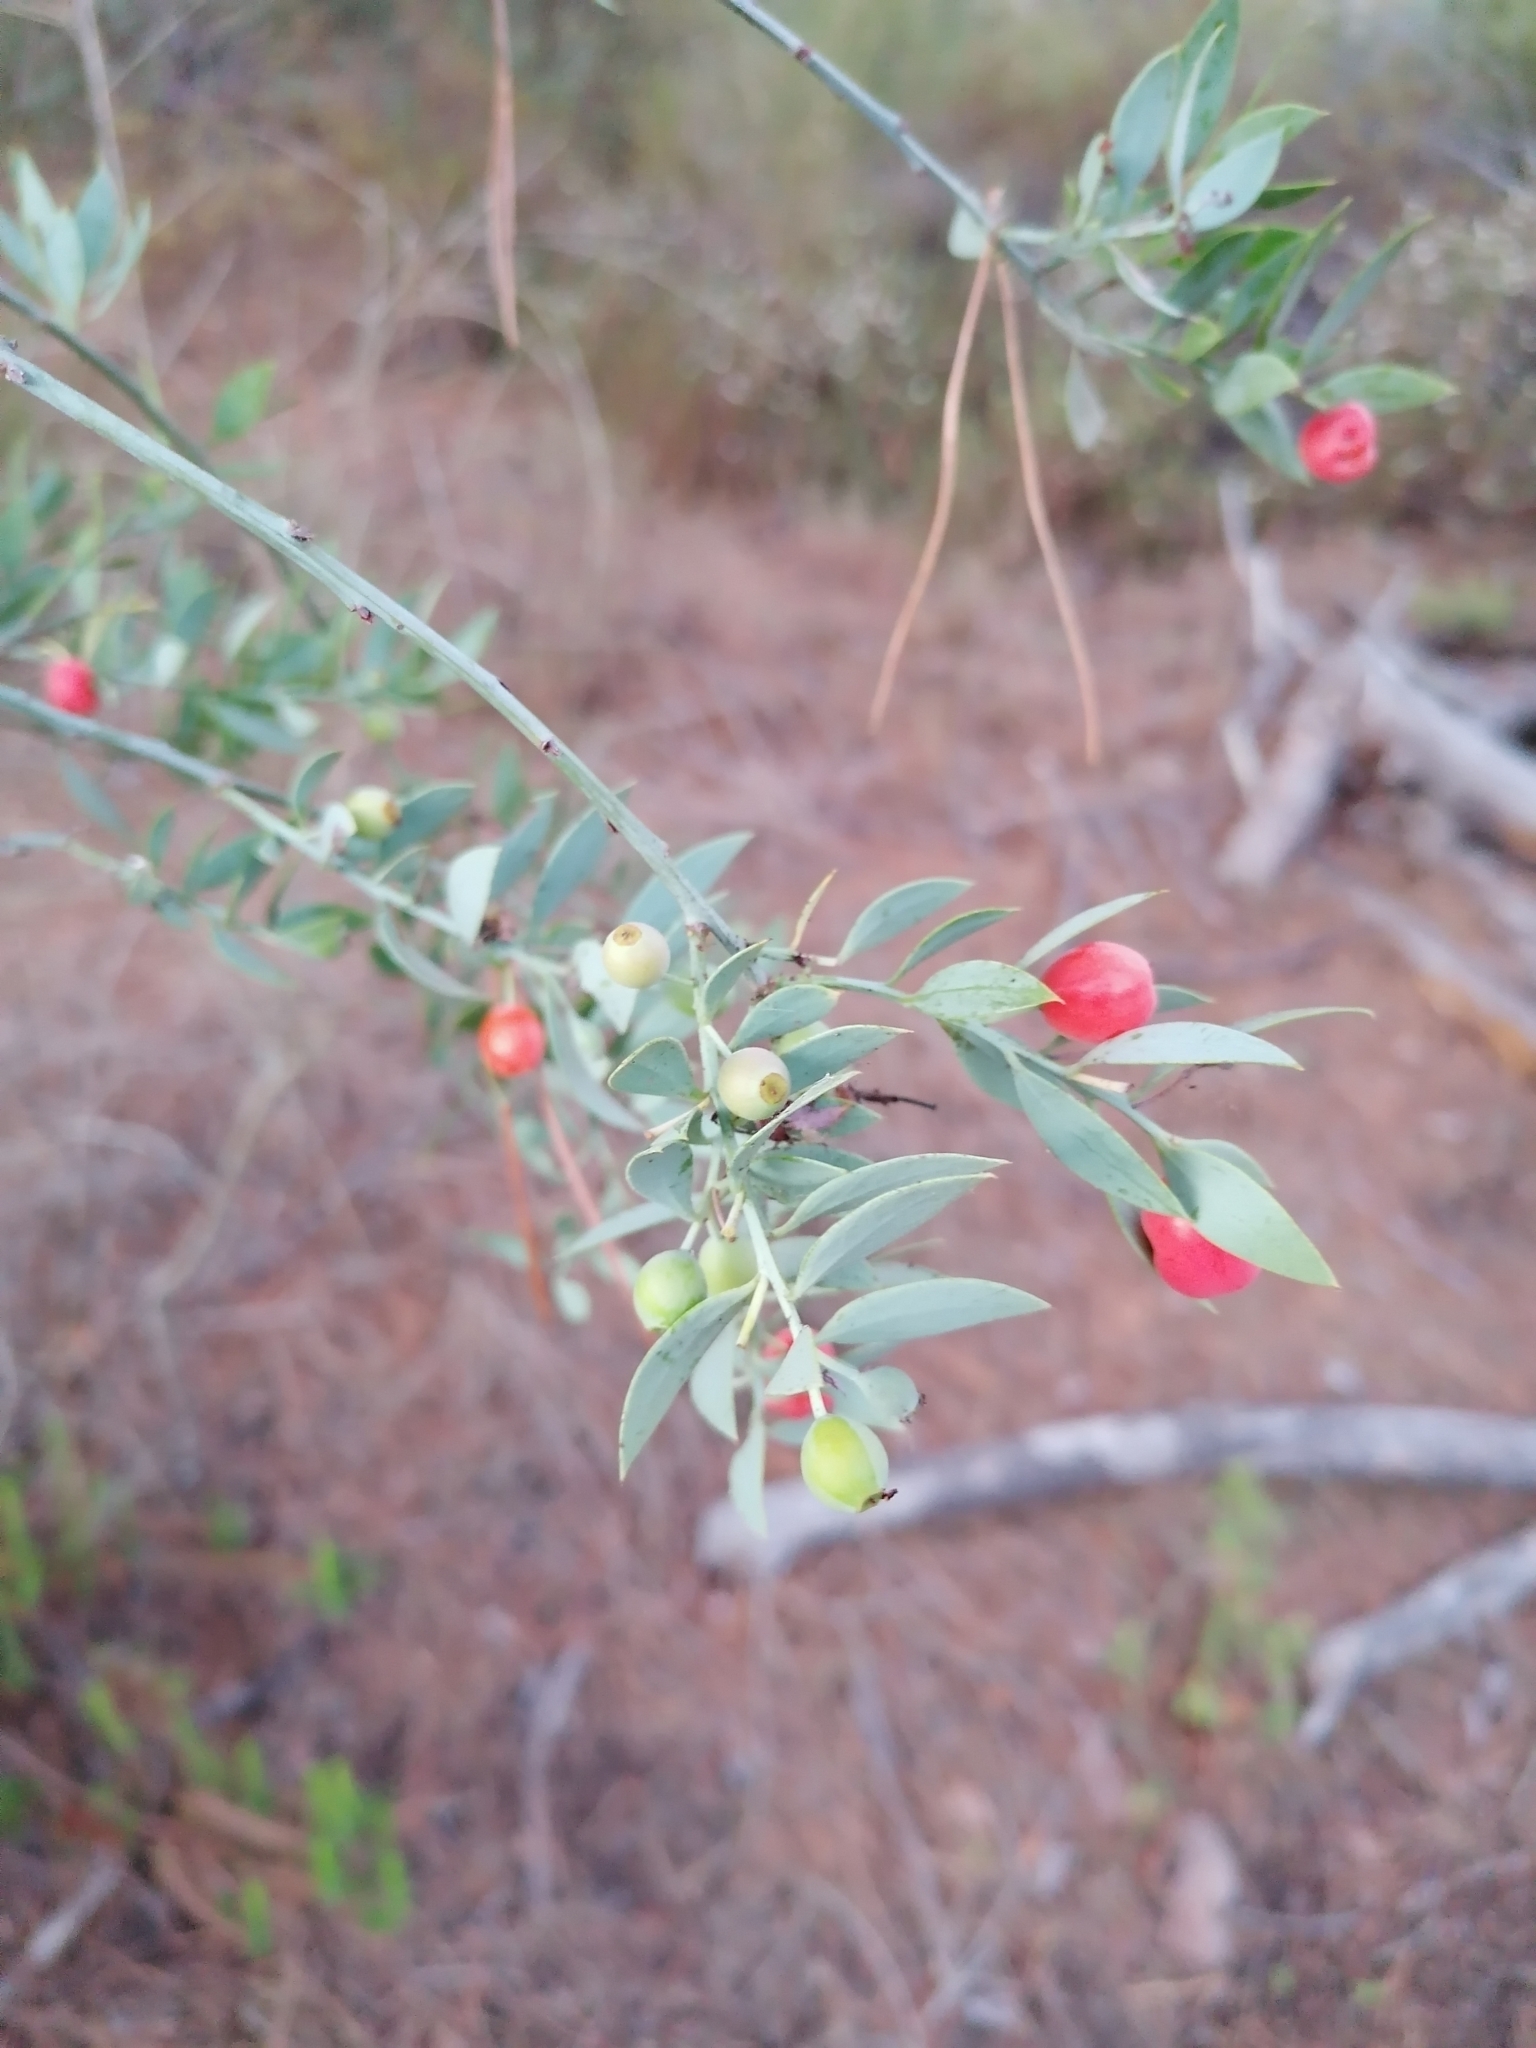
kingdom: Plantae
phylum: Tracheophyta
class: Magnoliopsida
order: Santalales
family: Santalaceae
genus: Osyris
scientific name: Osyris lanceolata
